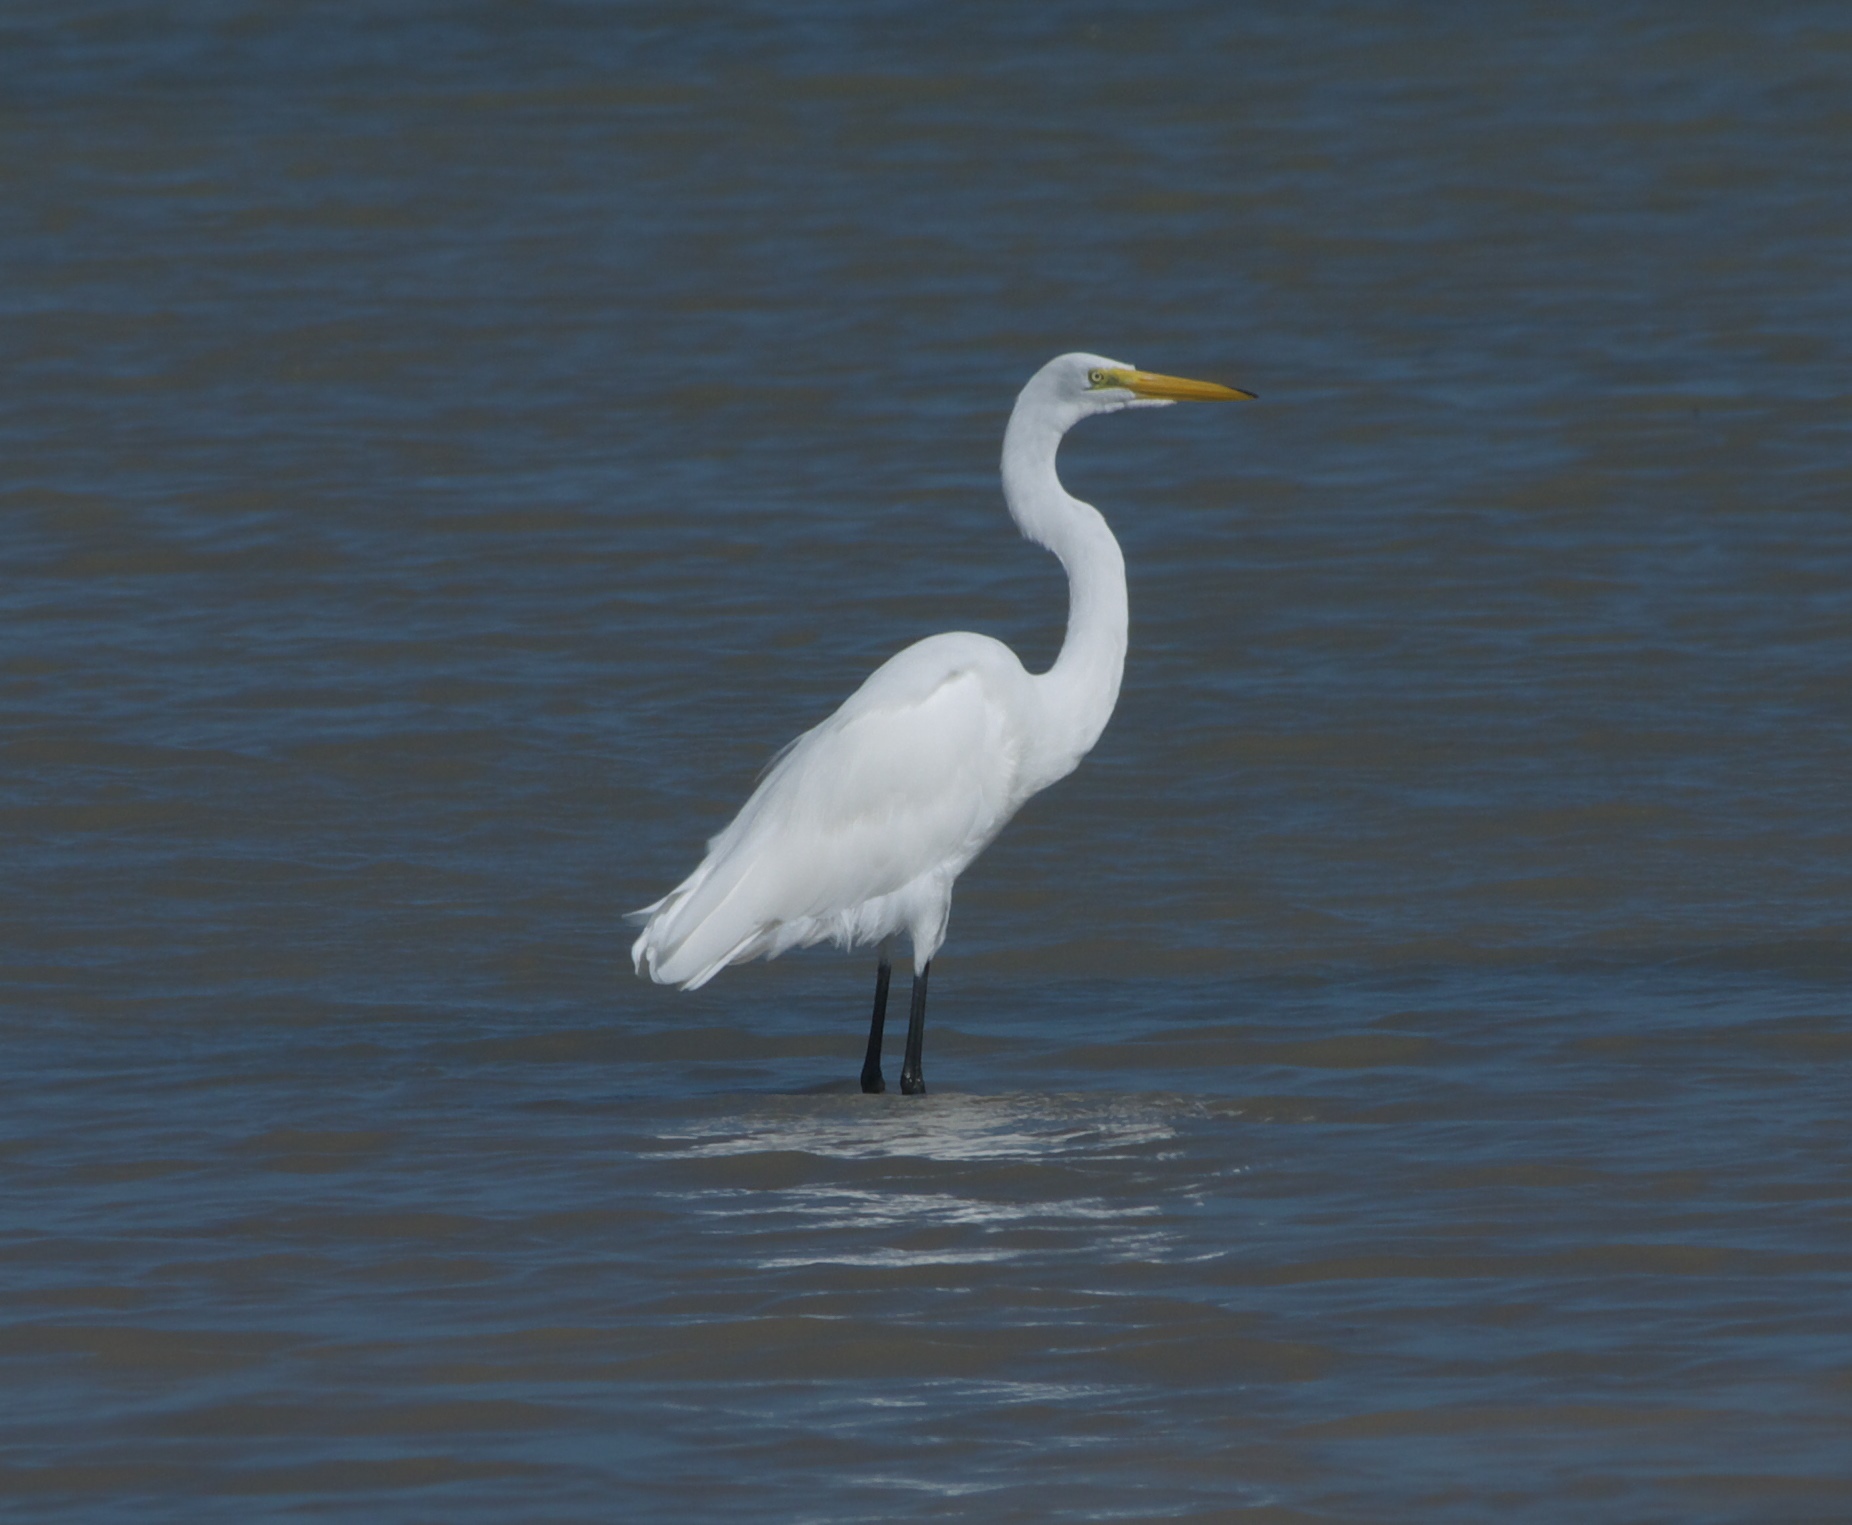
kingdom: Animalia
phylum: Chordata
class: Aves
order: Pelecaniformes
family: Ardeidae
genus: Ardea
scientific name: Ardea alba
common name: Great egret
